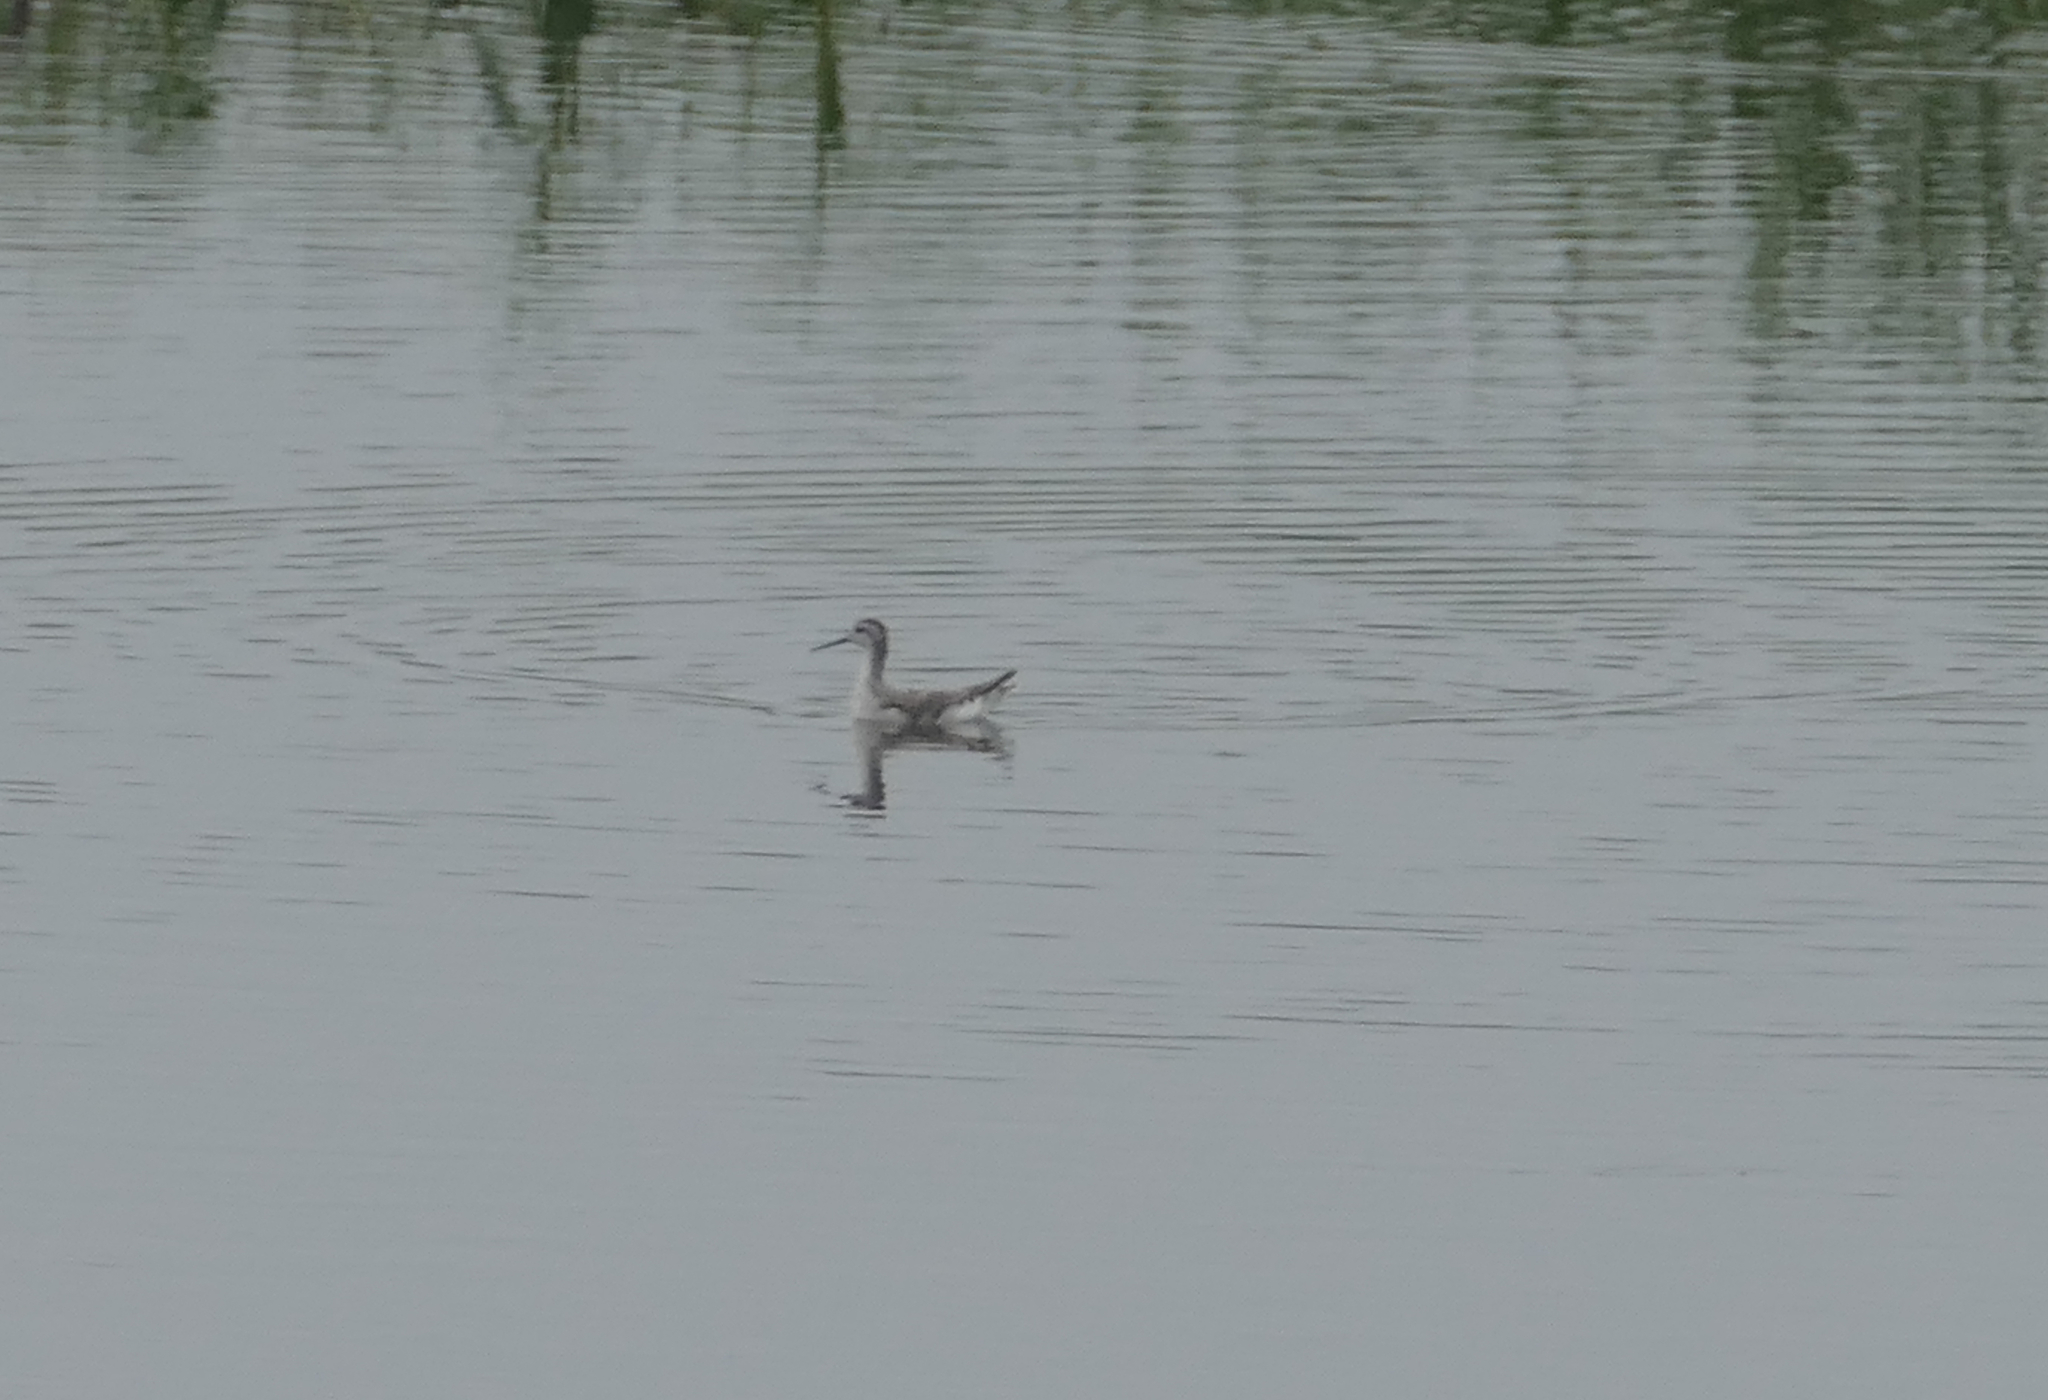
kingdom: Animalia
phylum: Chordata
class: Aves
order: Charadriiformes
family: Scolopacidae
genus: Phalaropus
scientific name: Phalaropus tricolor
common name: Wilson's phalarope
